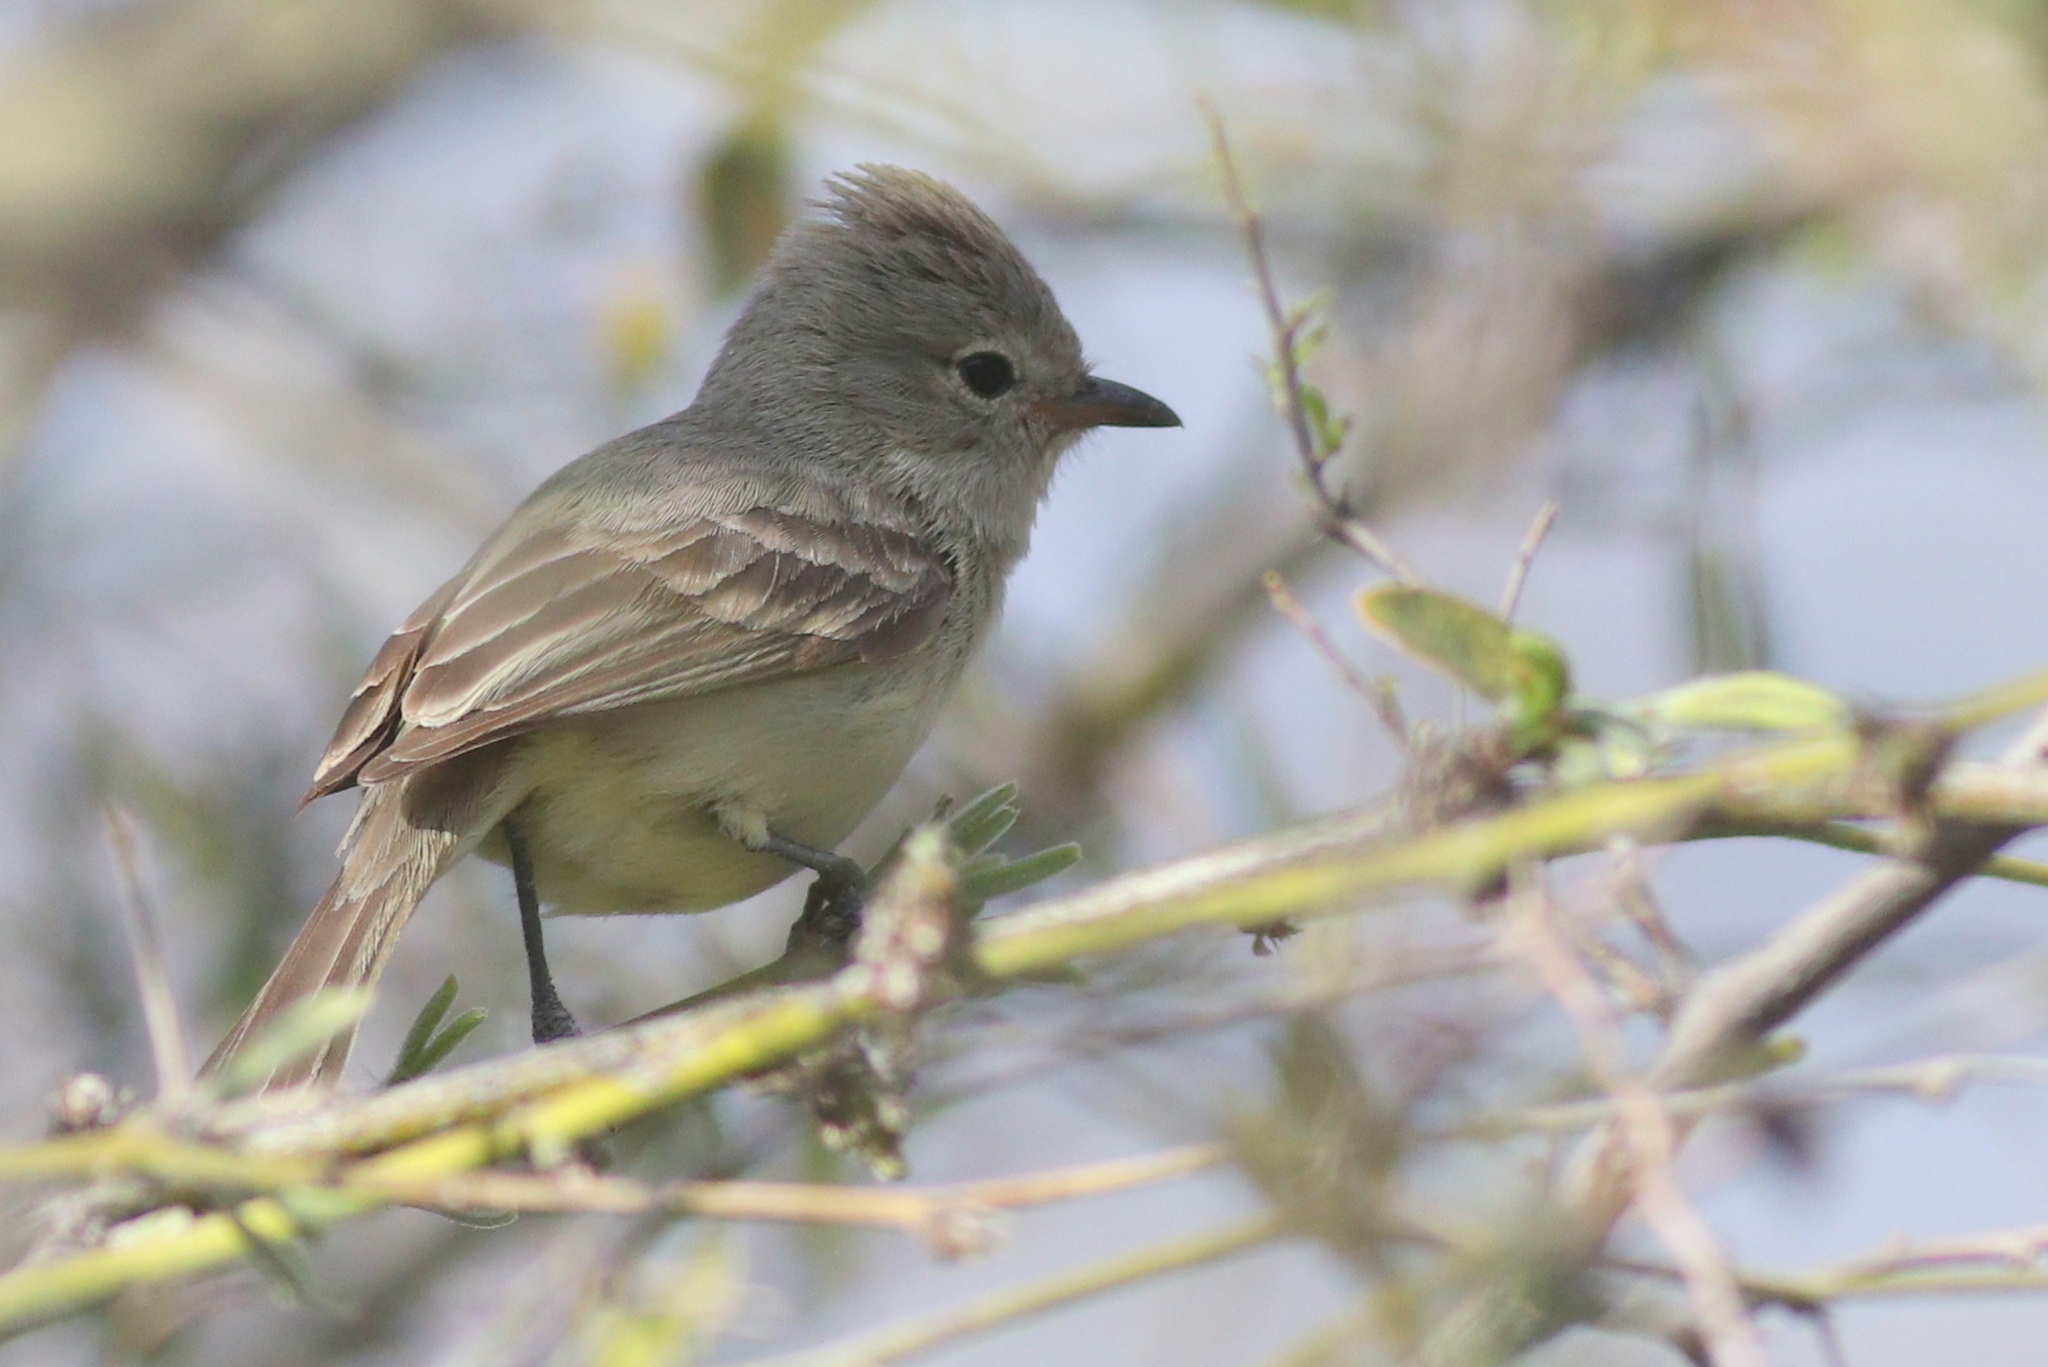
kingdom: Animalia
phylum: Chordata
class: Aves
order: Passeriformes
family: Tyrannidae
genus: Camptostoma
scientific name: Camptostoma imberbe
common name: Northern beardless-tyrannulet
